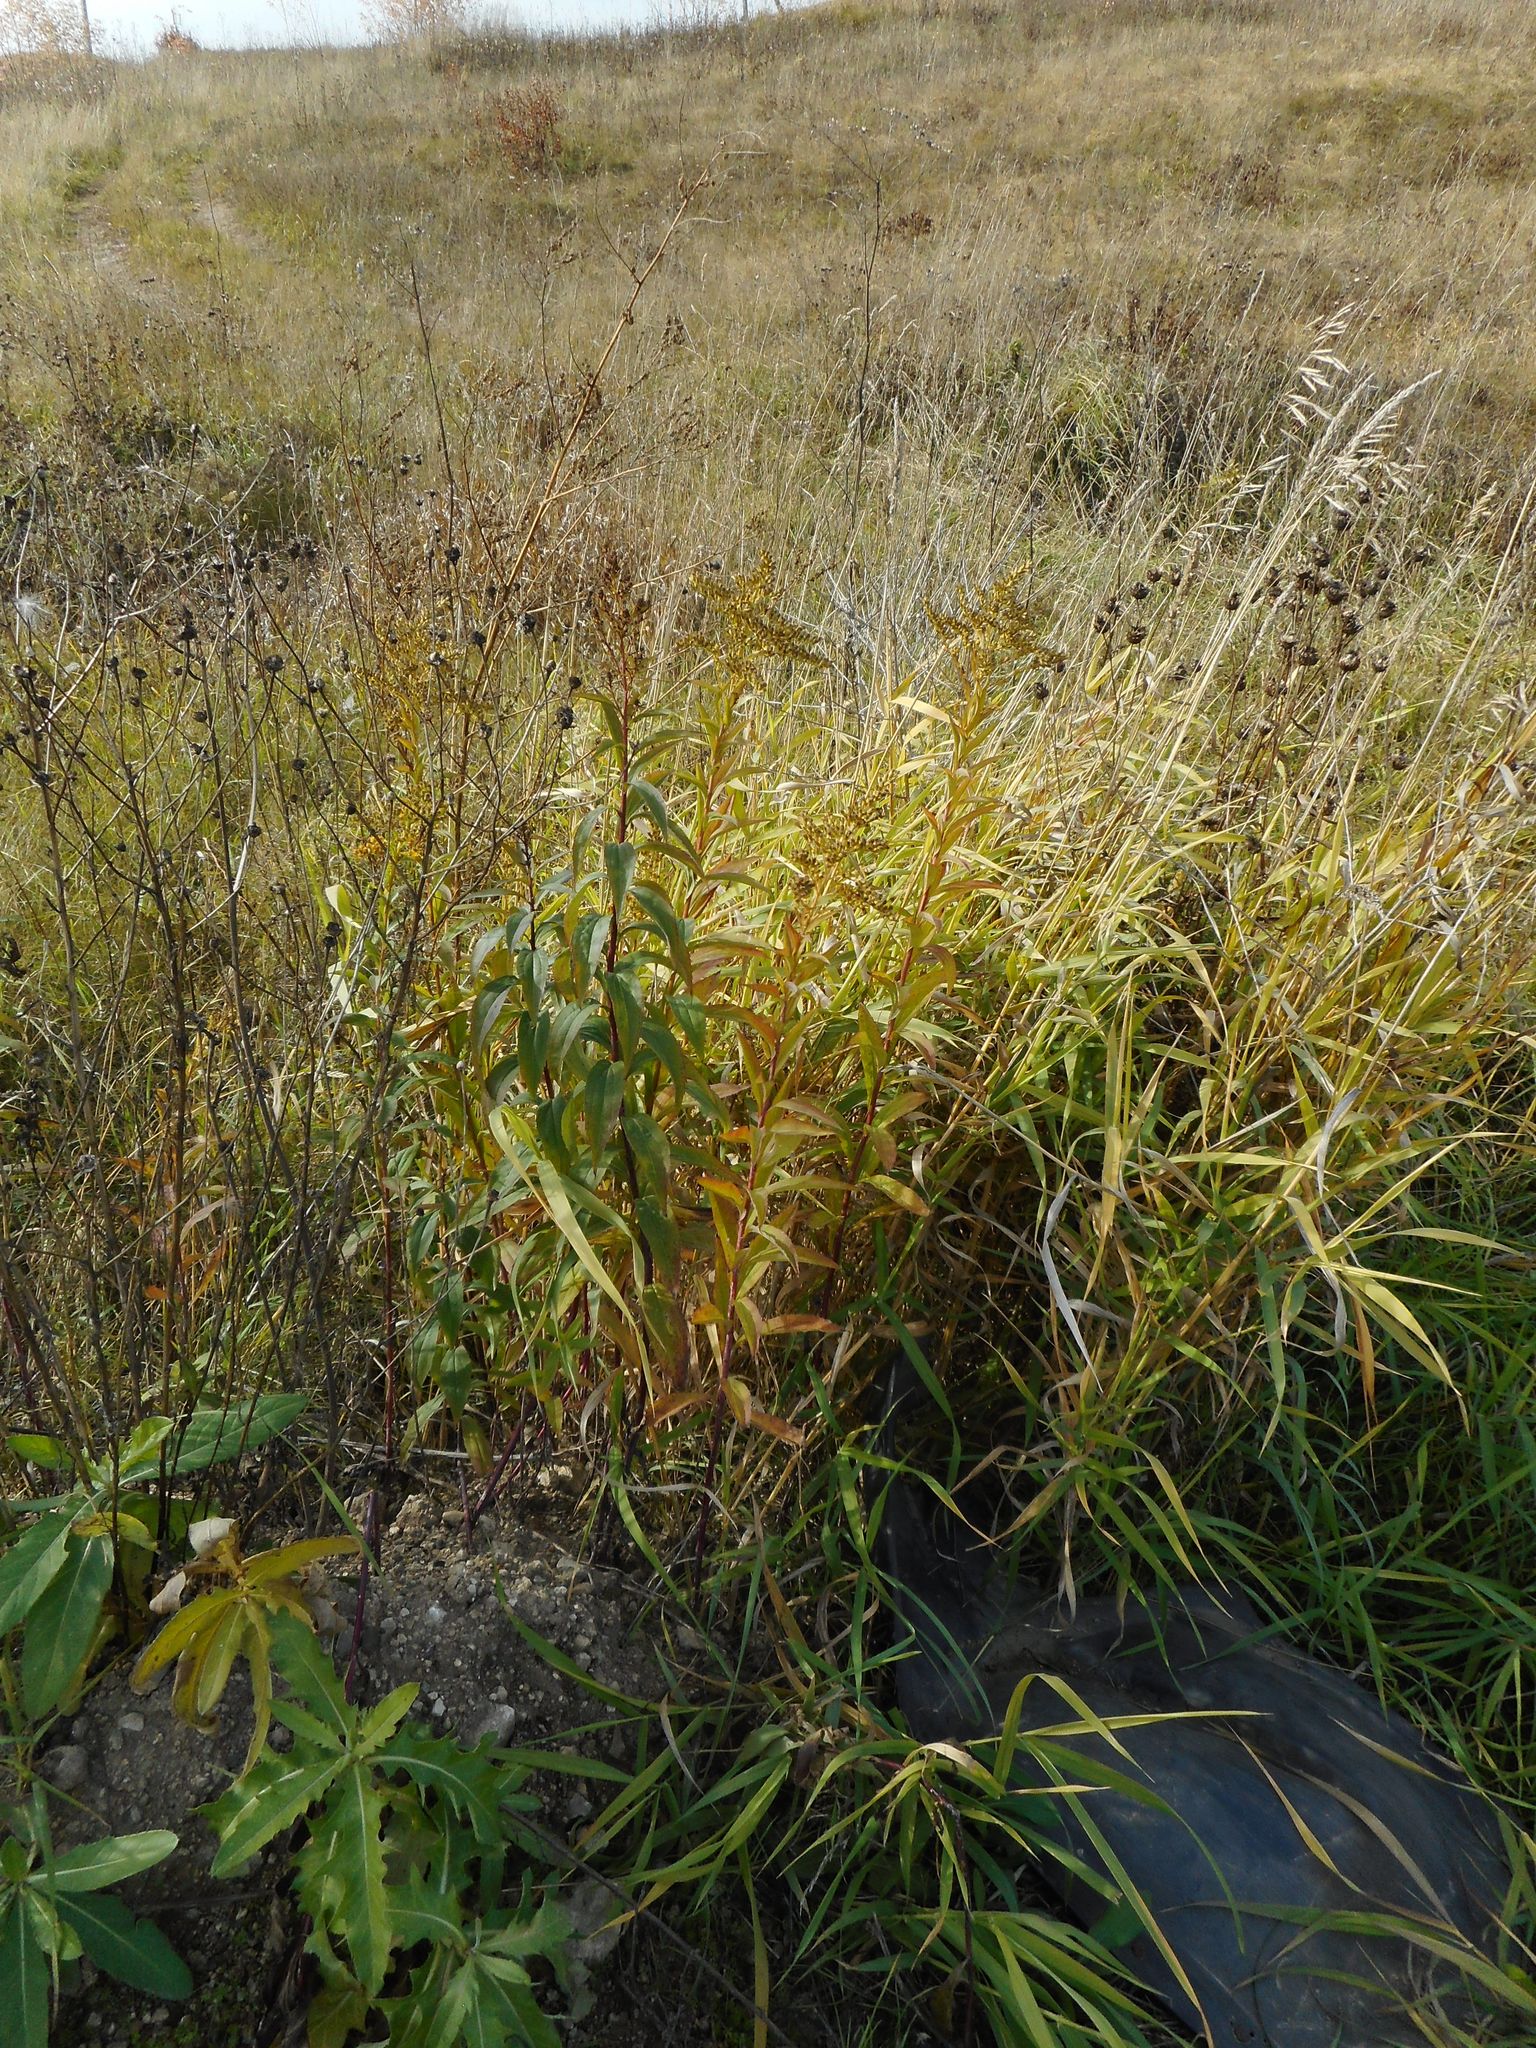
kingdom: Plantae
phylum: Tracheophyta
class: Magnoliopsida
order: Asterales
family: Asteraceae
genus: Solidago
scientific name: Solidago gigantea
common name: Giant goldenrod
